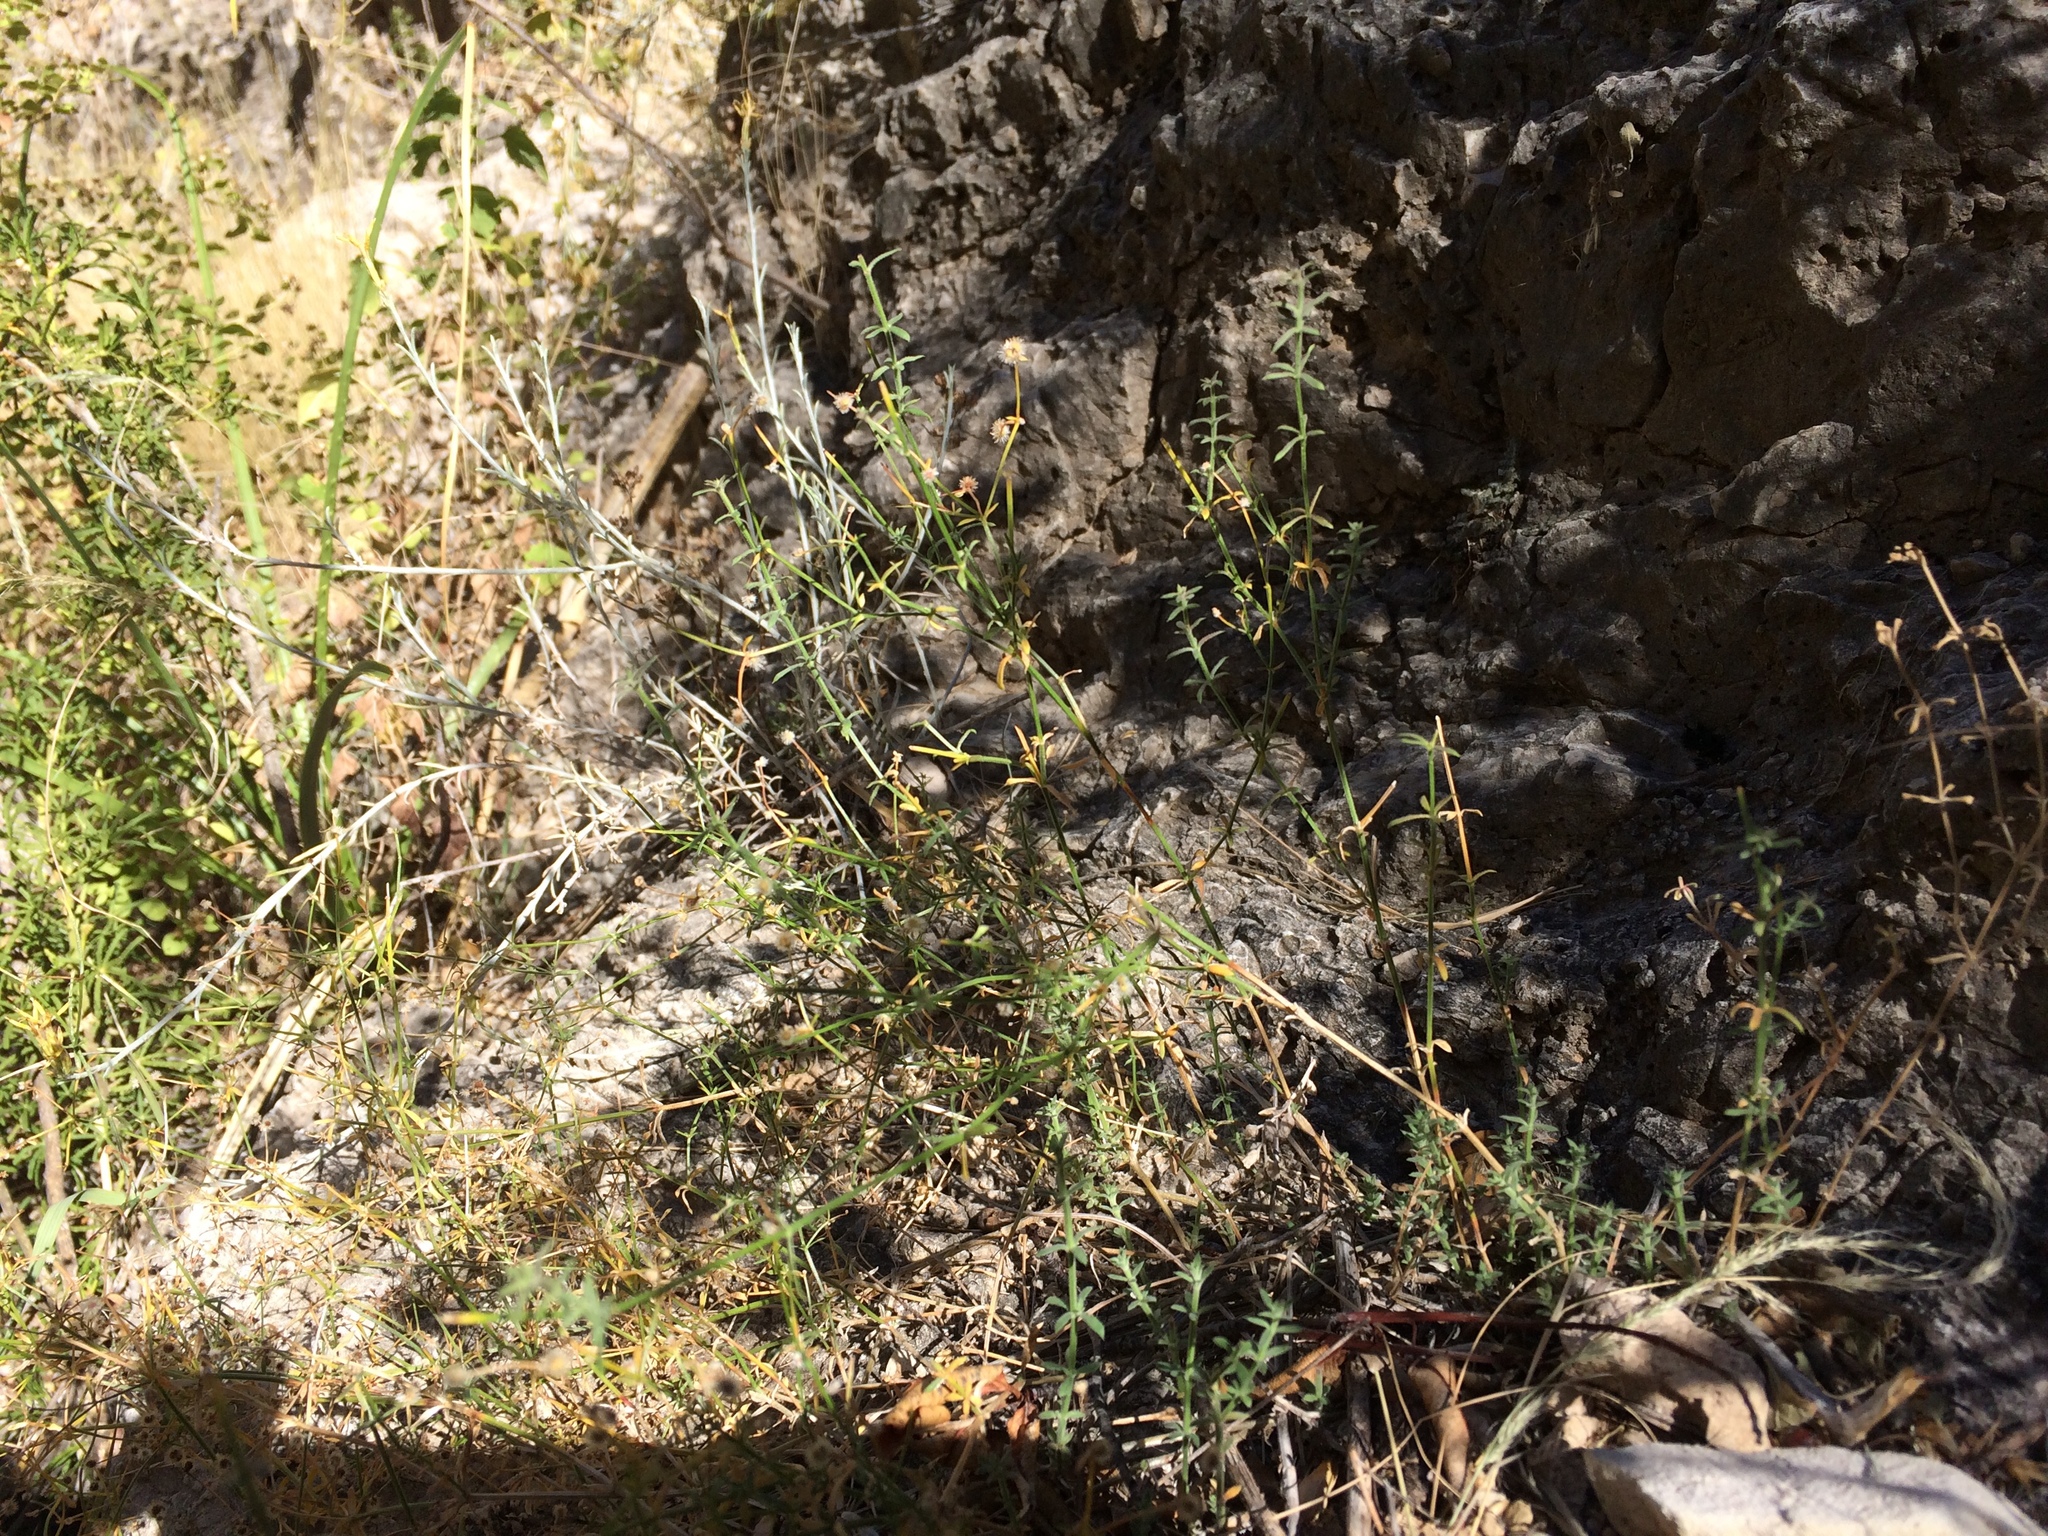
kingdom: Plantae
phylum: Tracheophyta
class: Magnoliopsida
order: Gentianales
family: Rubiaceae
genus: Galium
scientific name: Galium proliferum
